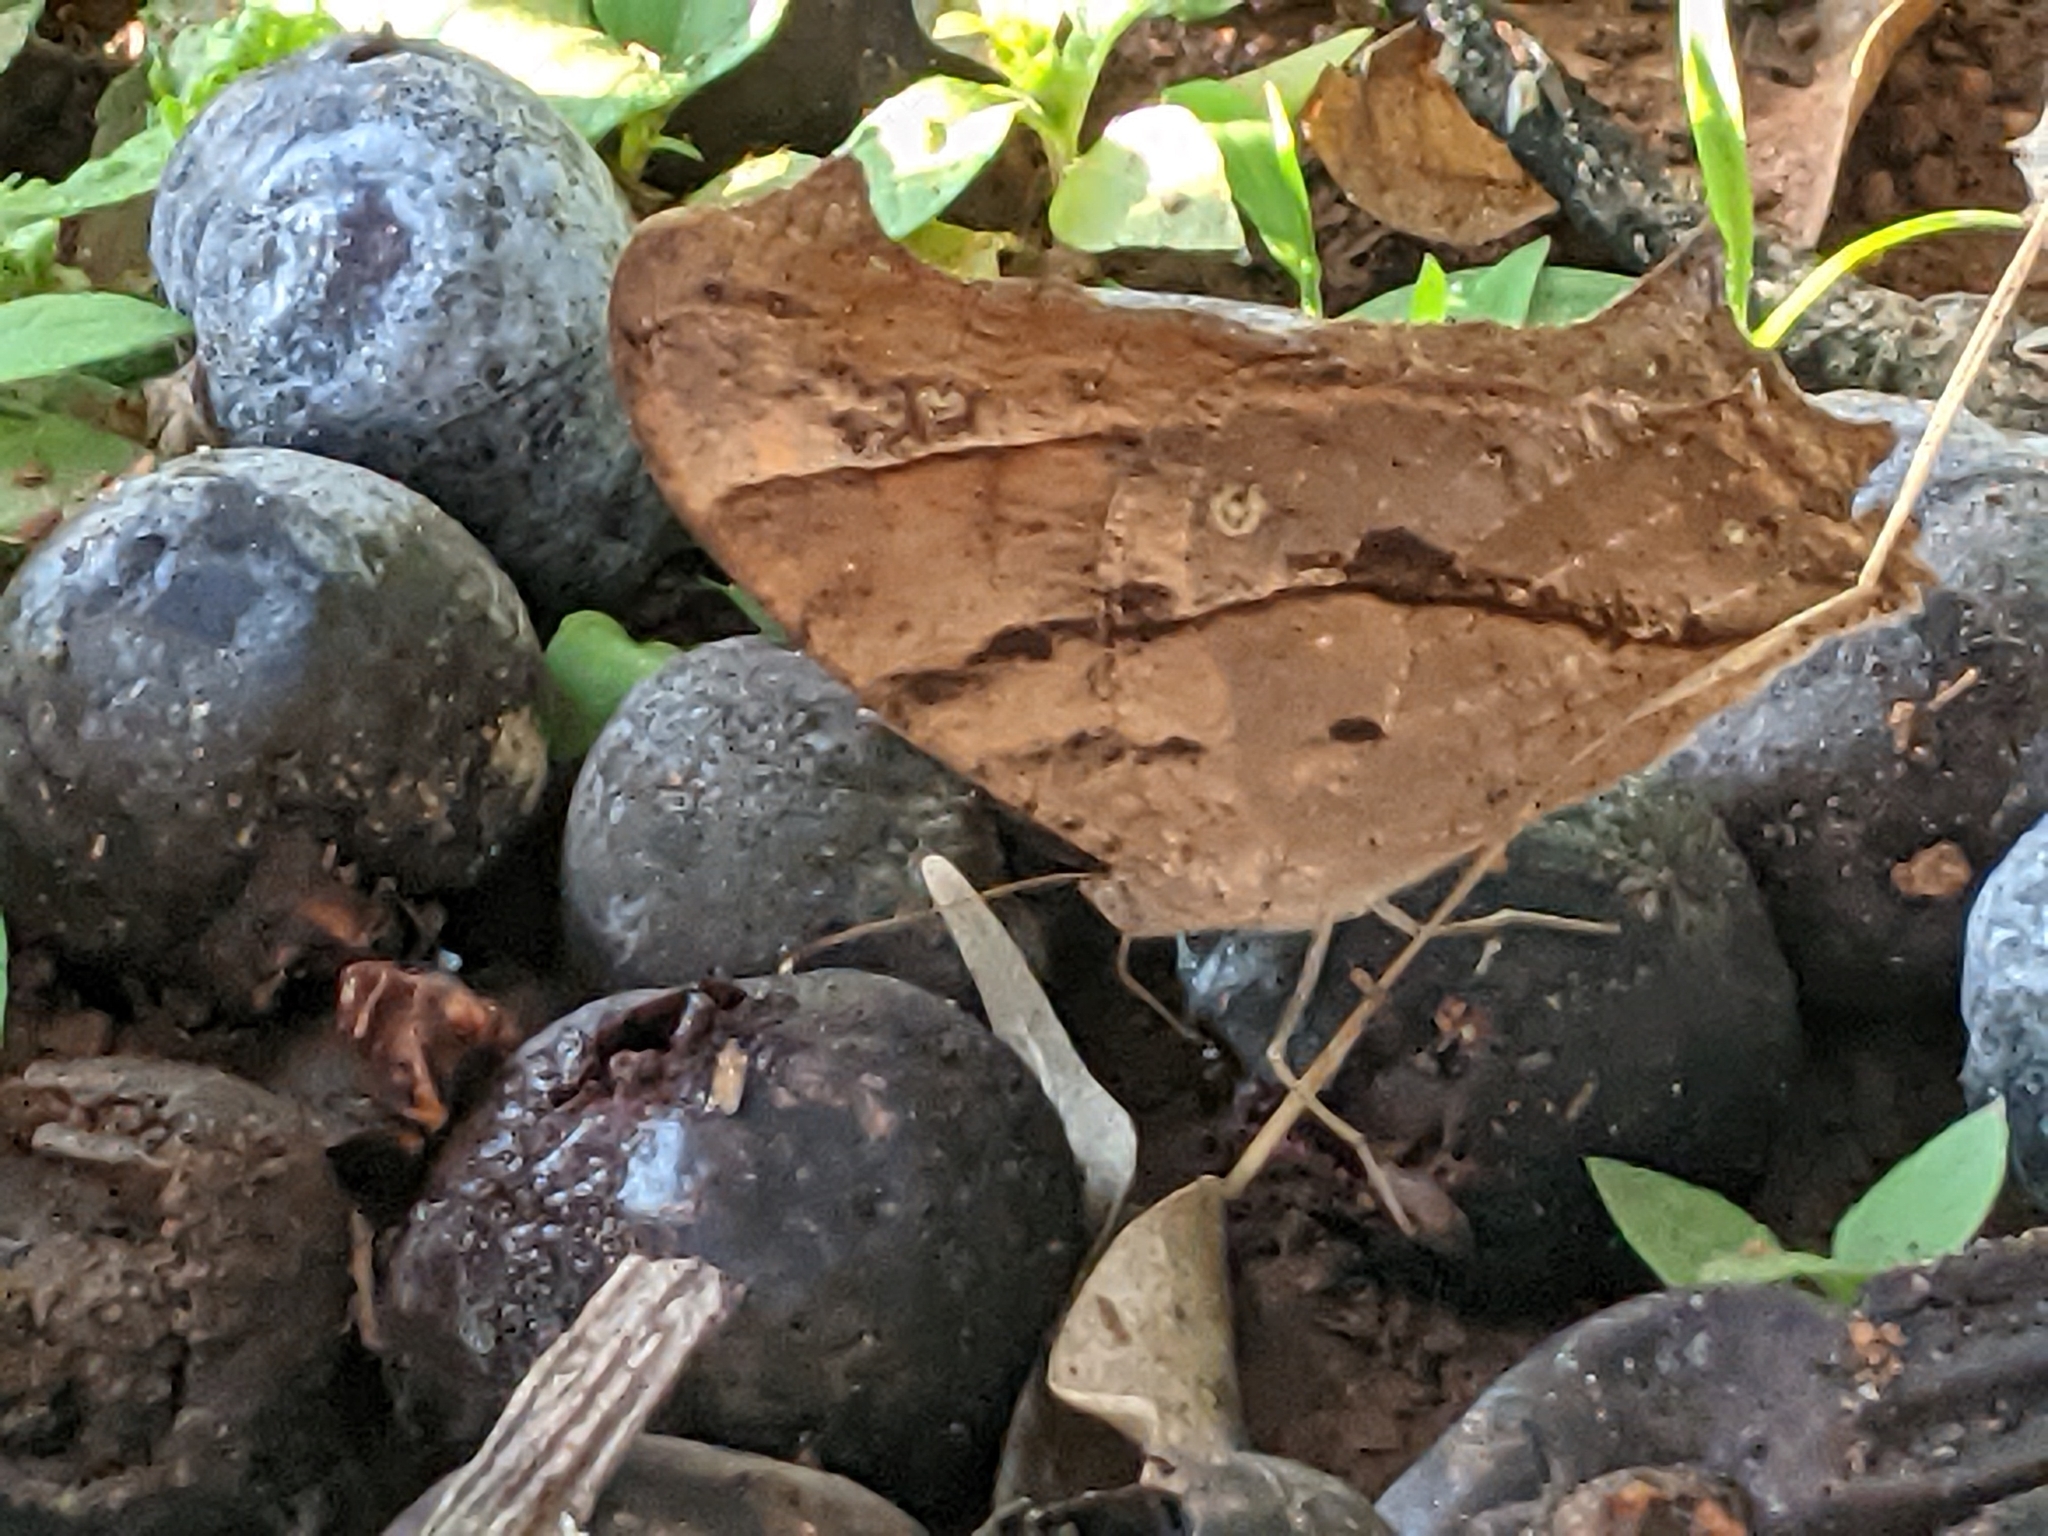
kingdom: Animalia
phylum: Arthropoda
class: Insecta
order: Lepidoptera
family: Nymphalidae
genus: Melanitis
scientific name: Melanitis leda
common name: Twilight brown
